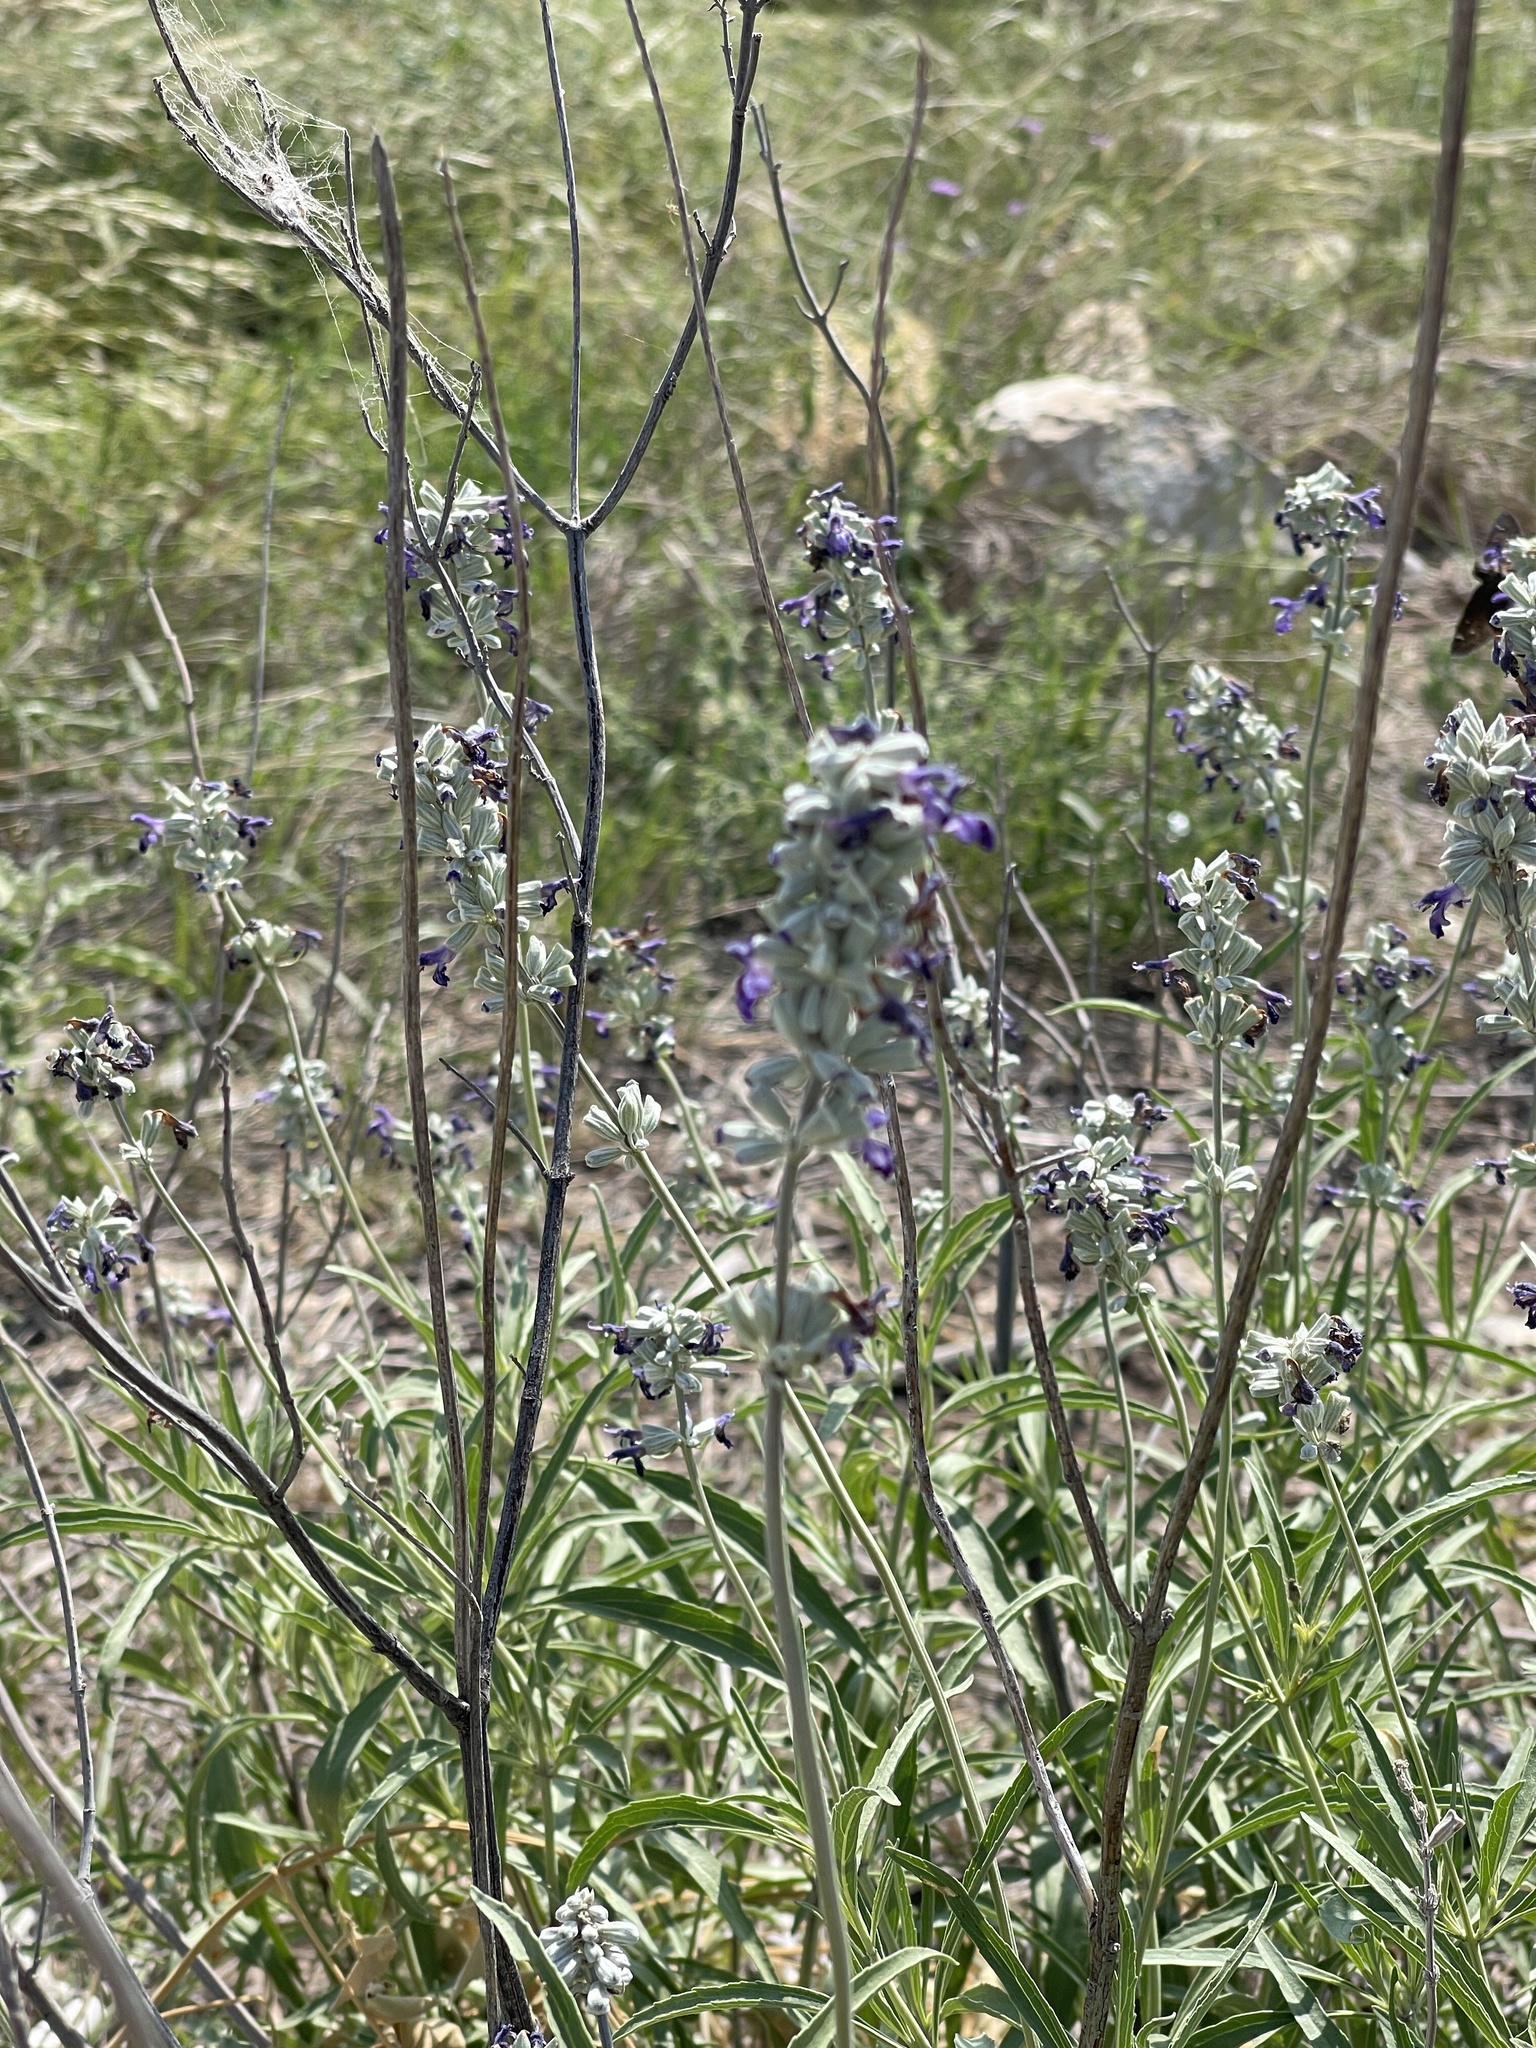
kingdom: Plantae
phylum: Tracheophyta
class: Magnoliopsida
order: Lamiales
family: Lamiaceae
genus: Salvia
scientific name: Salvia farinacea
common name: Mealy sage
